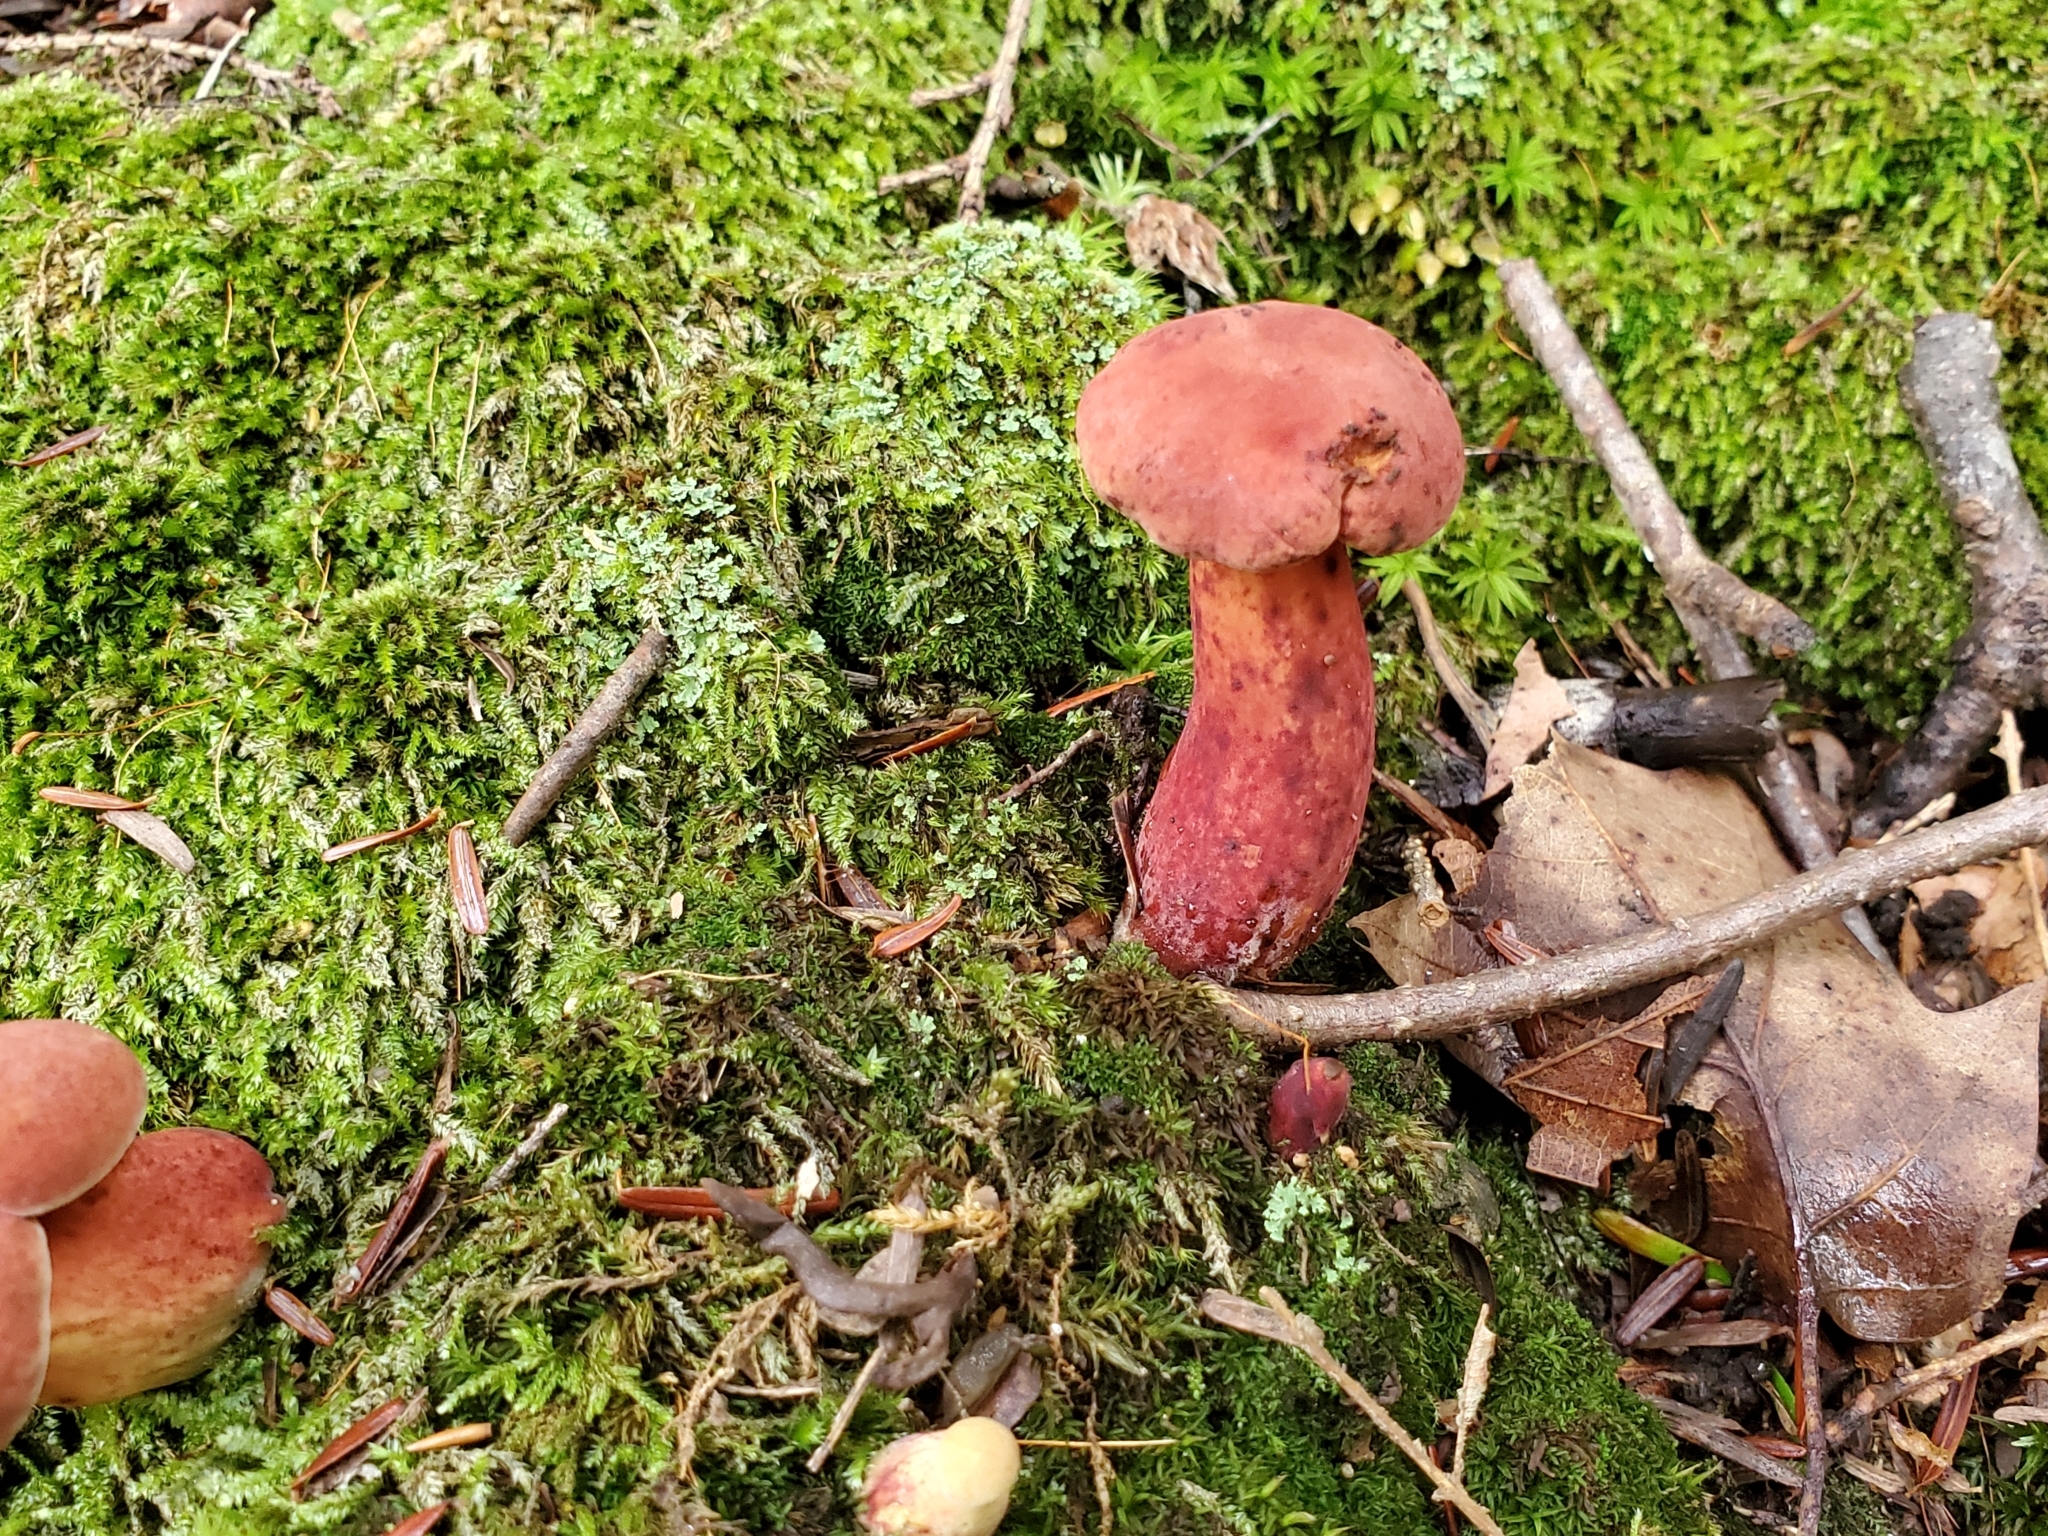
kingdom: Fungi
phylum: Basidiomycota
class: Agaricomycetes
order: Boletales
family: Boletaceae
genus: Baorangia
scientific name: Baorangia bicolor
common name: Two-colored bolete
